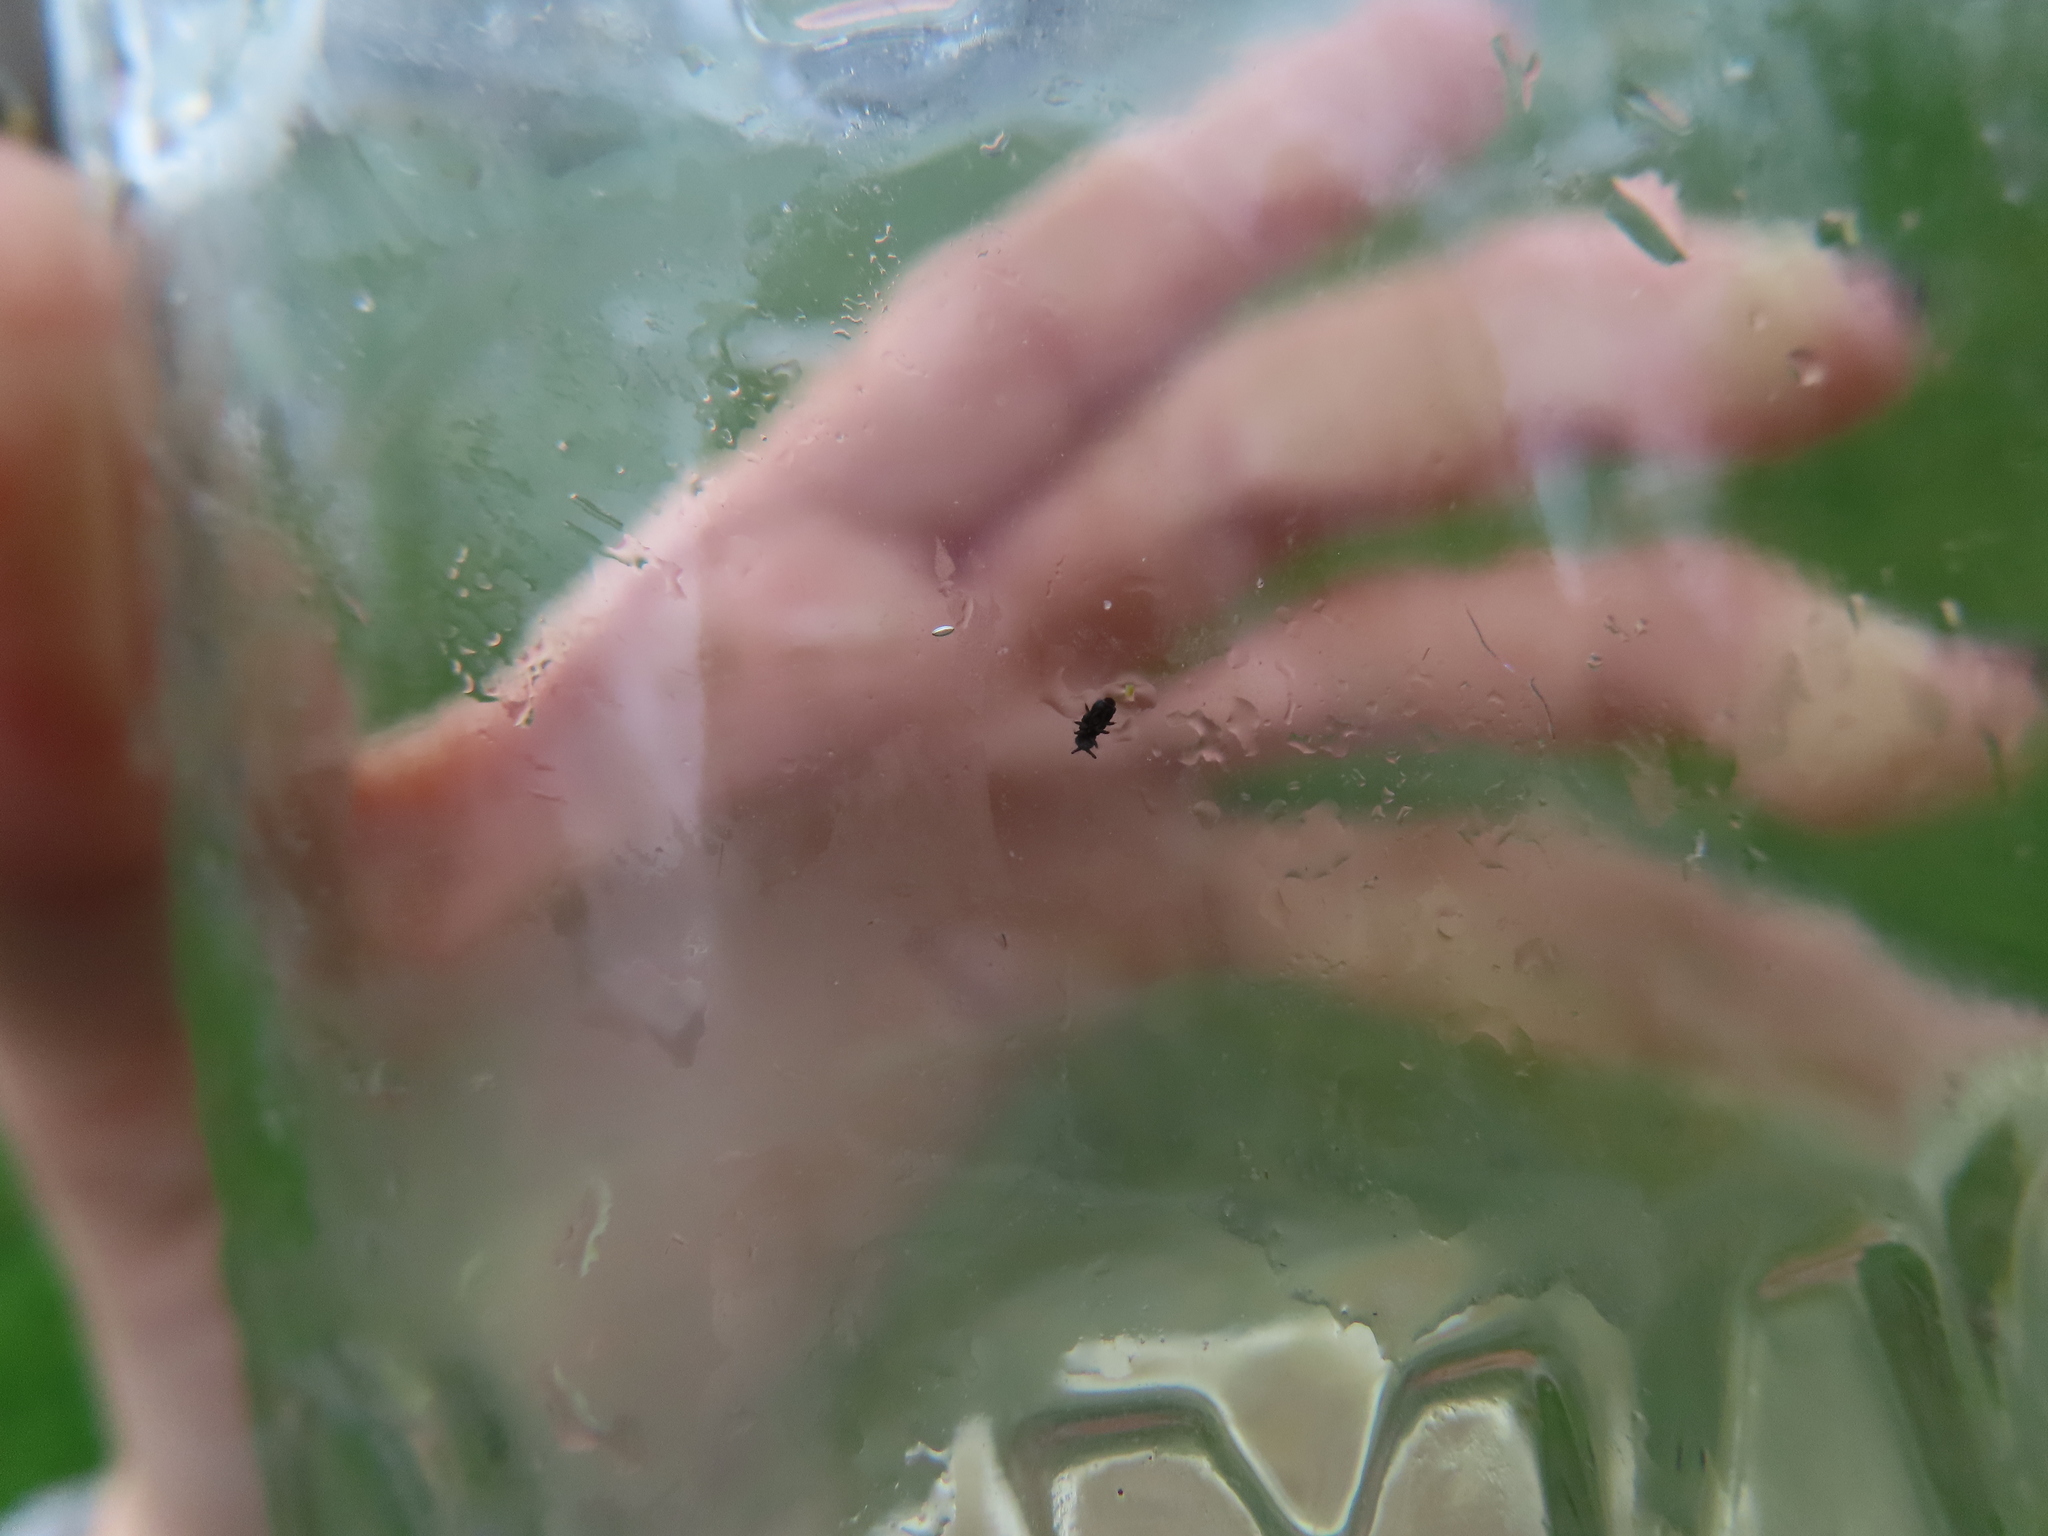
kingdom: Animalia
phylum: Arthropoda
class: Collembola
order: Poduromorpha
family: Poduridae
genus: Podura
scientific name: Podura aquatica
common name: Water springtail
